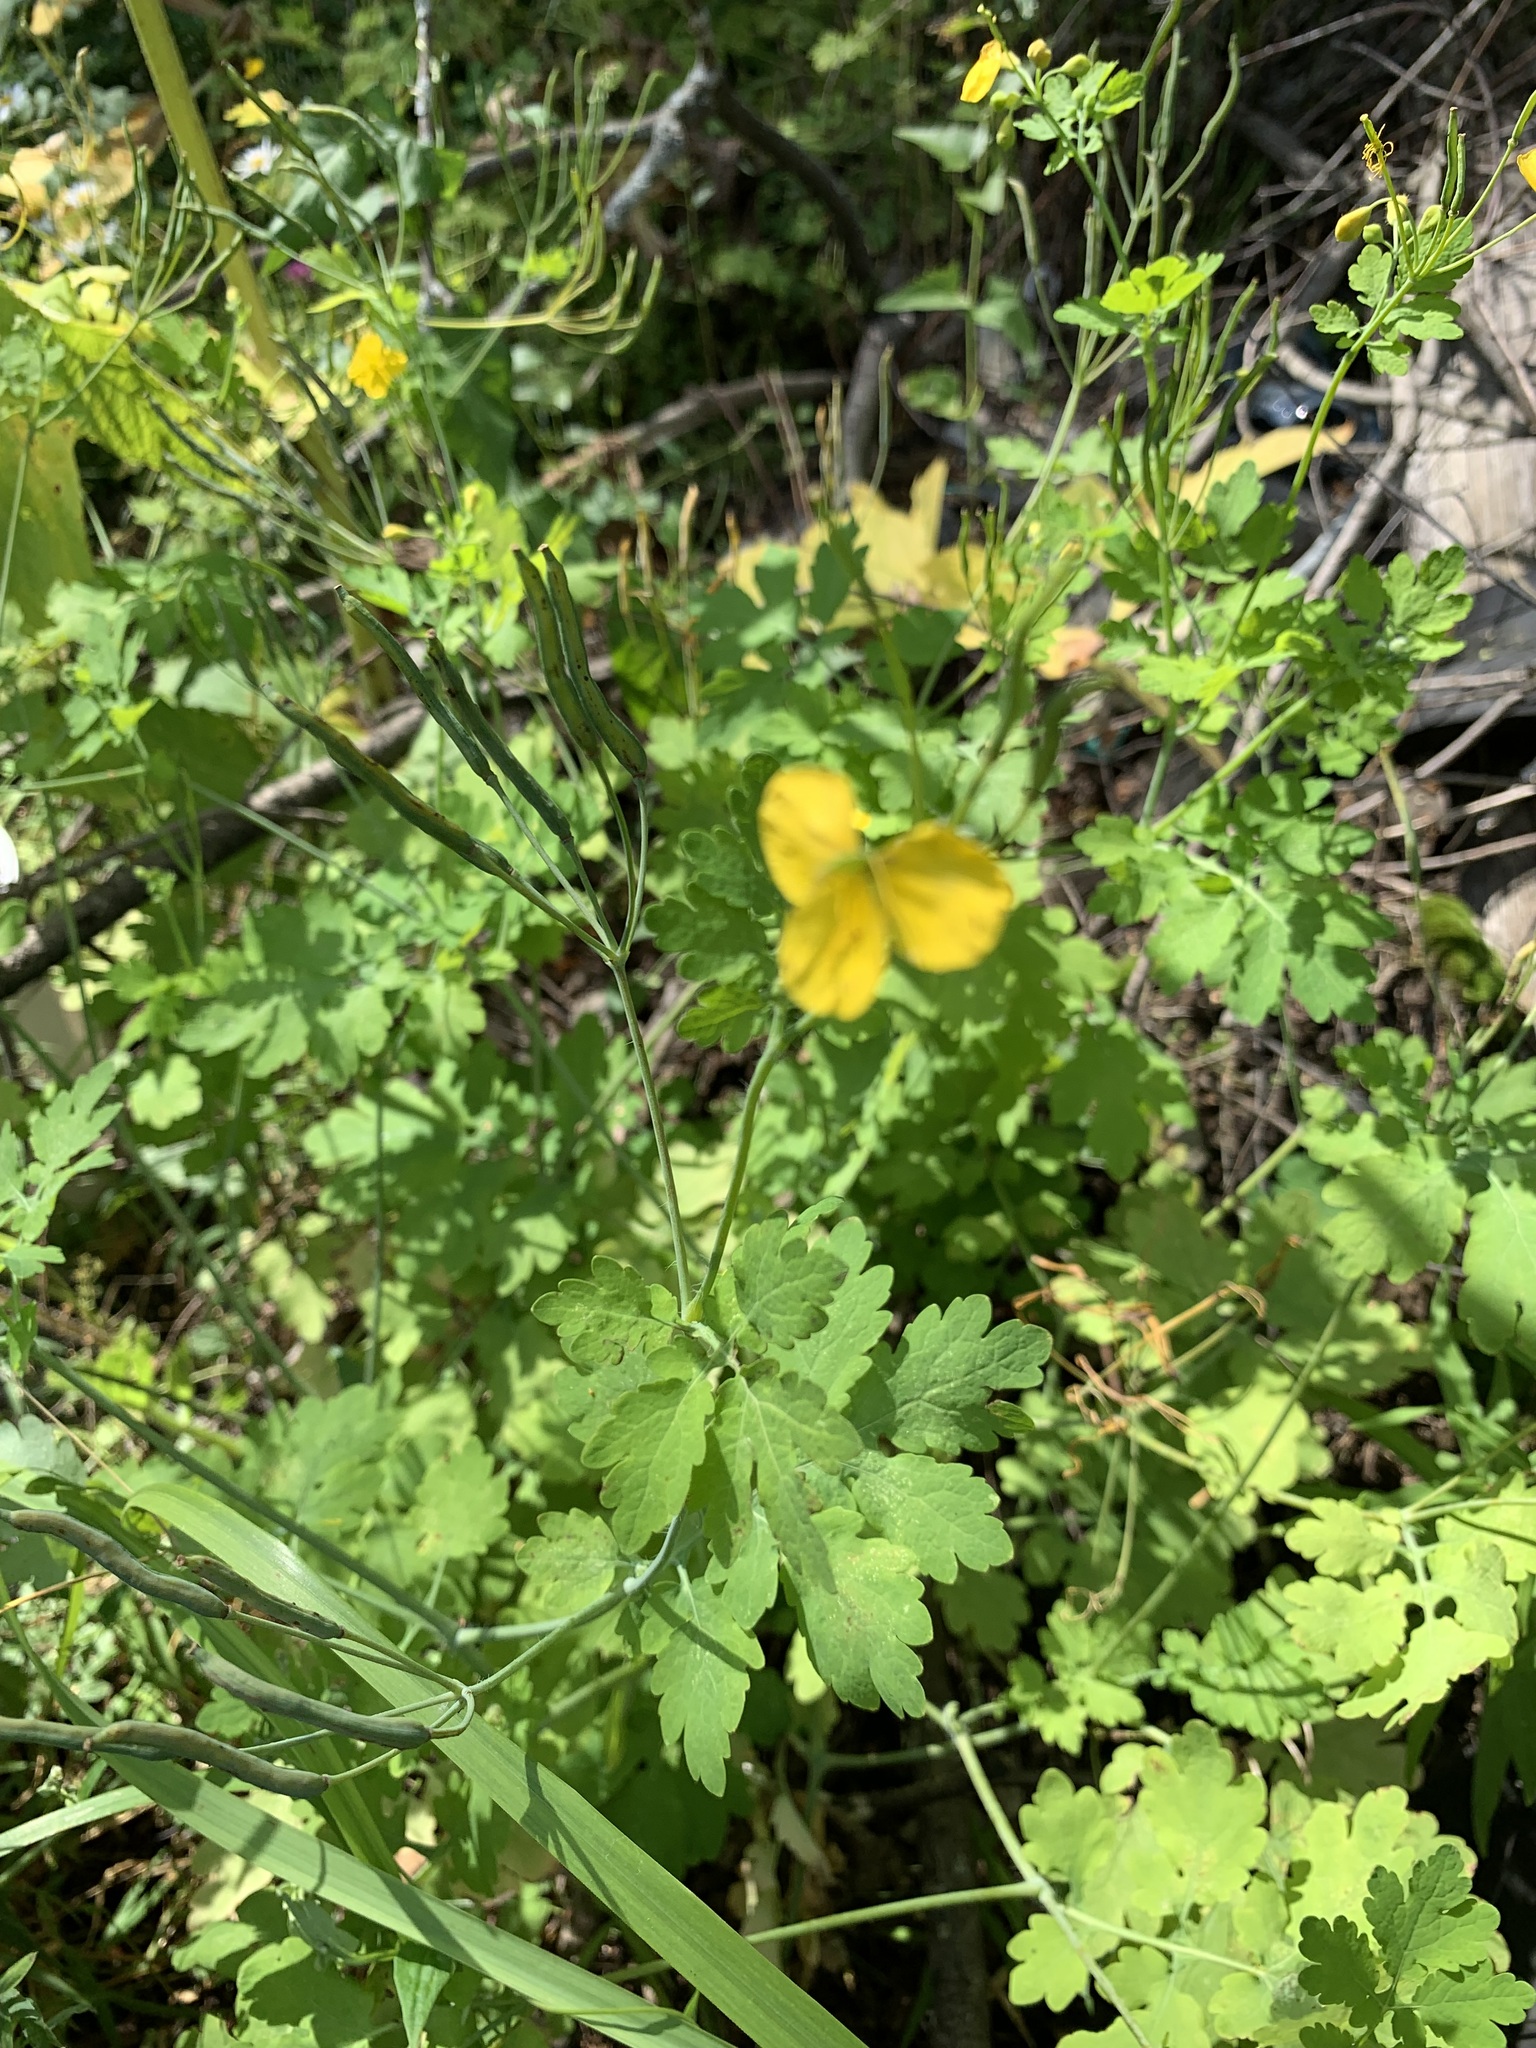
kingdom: Plantae
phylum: Tracheophyta
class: Magnoliopsida
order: Ranunculales
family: Papaveraceae
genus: Chelidonium
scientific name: Chelidonium majus
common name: Greater celandine
